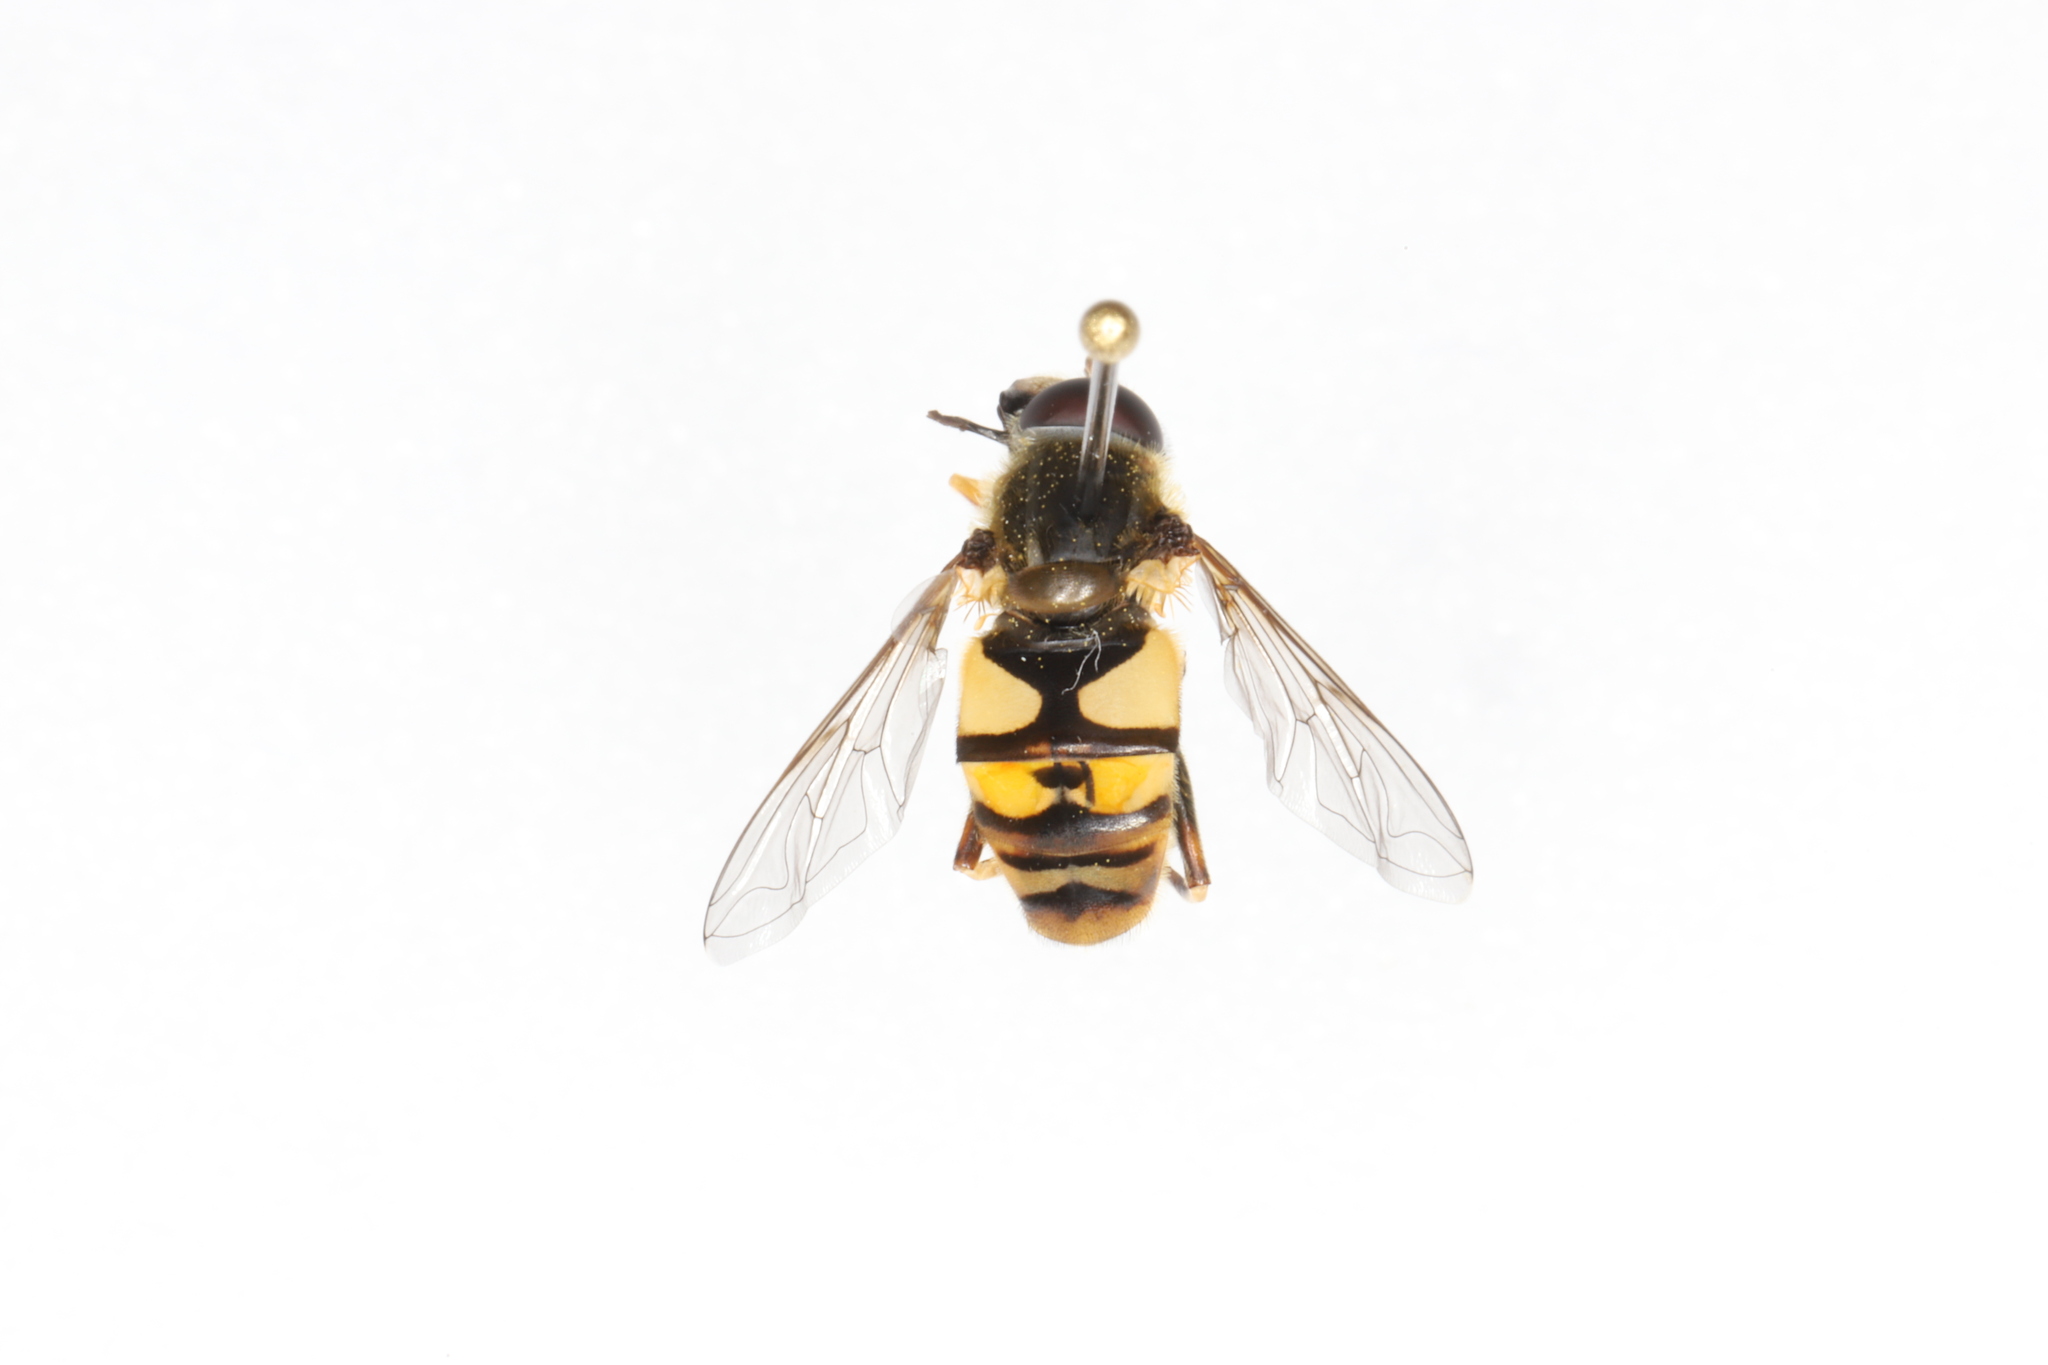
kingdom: Animalia
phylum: Arthropoda
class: Insecta
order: Diptera
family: Syrphidae
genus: Helophilus
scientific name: Helophilus fasciatus
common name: Narrow-headed marsh fly
